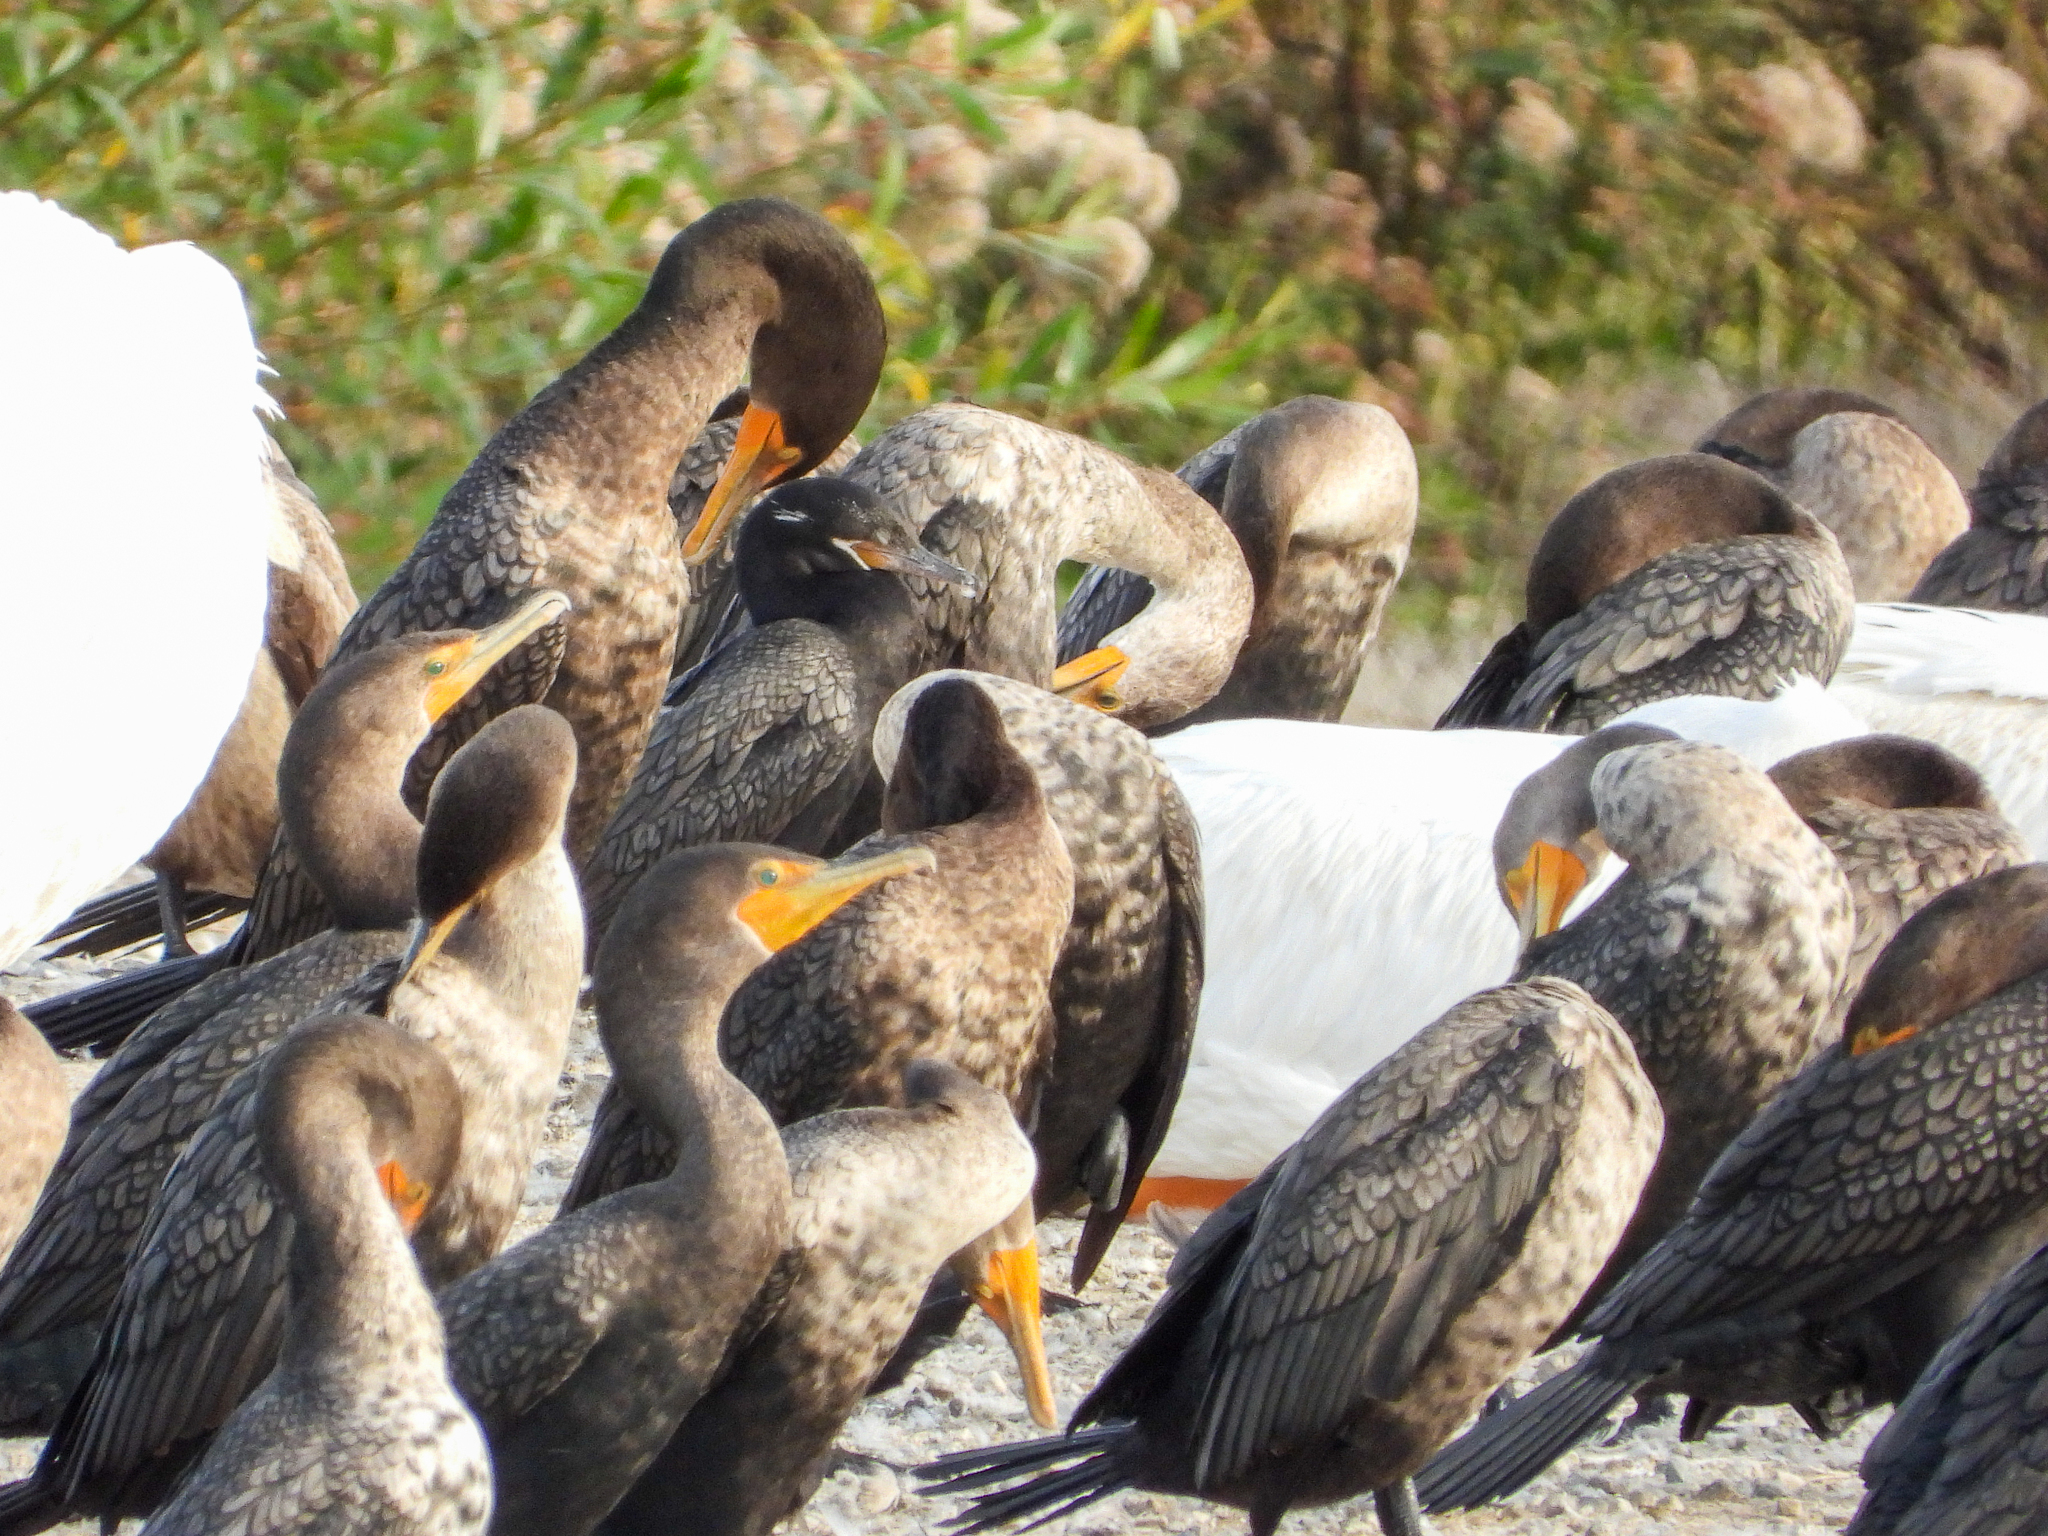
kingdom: Animalia
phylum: Chordata
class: Aves
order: Suliformes
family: Phalacrocoracidae
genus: Phalacrocorax
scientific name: Phalacrocorax brasilianus
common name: Neotropic cormorant
